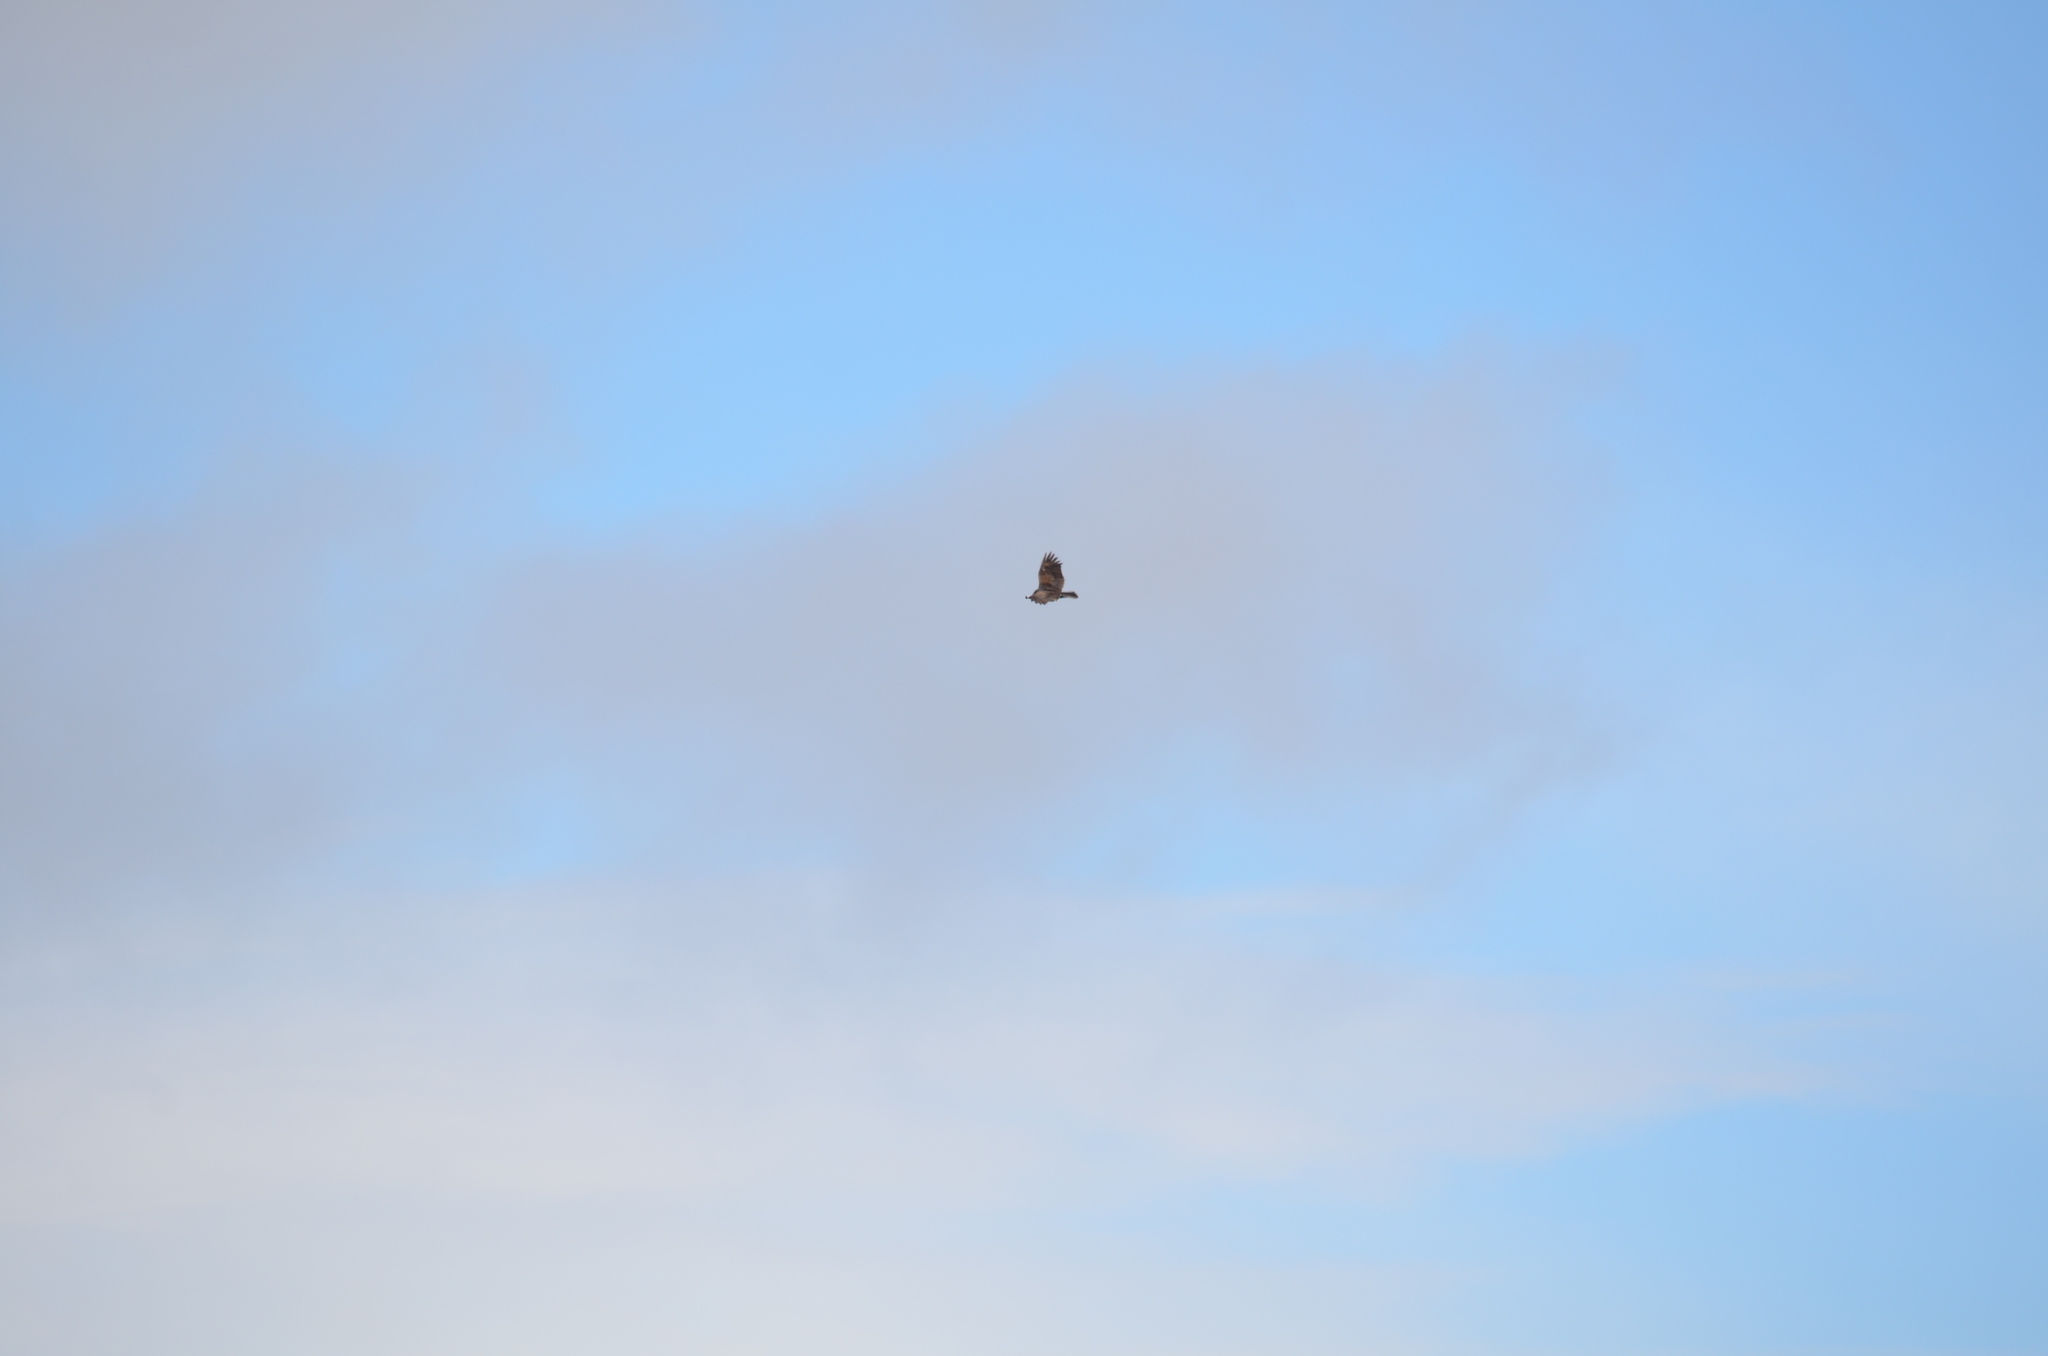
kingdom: Animalia
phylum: Chordata
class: Aves
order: Accipitriformes
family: Cathartidae
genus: Cathartes
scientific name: Cathartes aura
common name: Turkey vulture
